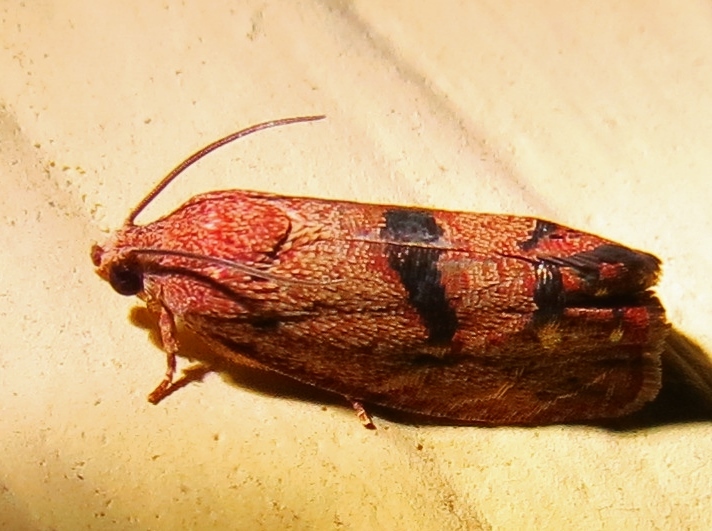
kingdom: Animalia
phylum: Arthropoda
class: Insecta
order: Lepidoptera
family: Tortricidae
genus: Cydia
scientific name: Cydia latiferreana
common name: Filbertworm moth
